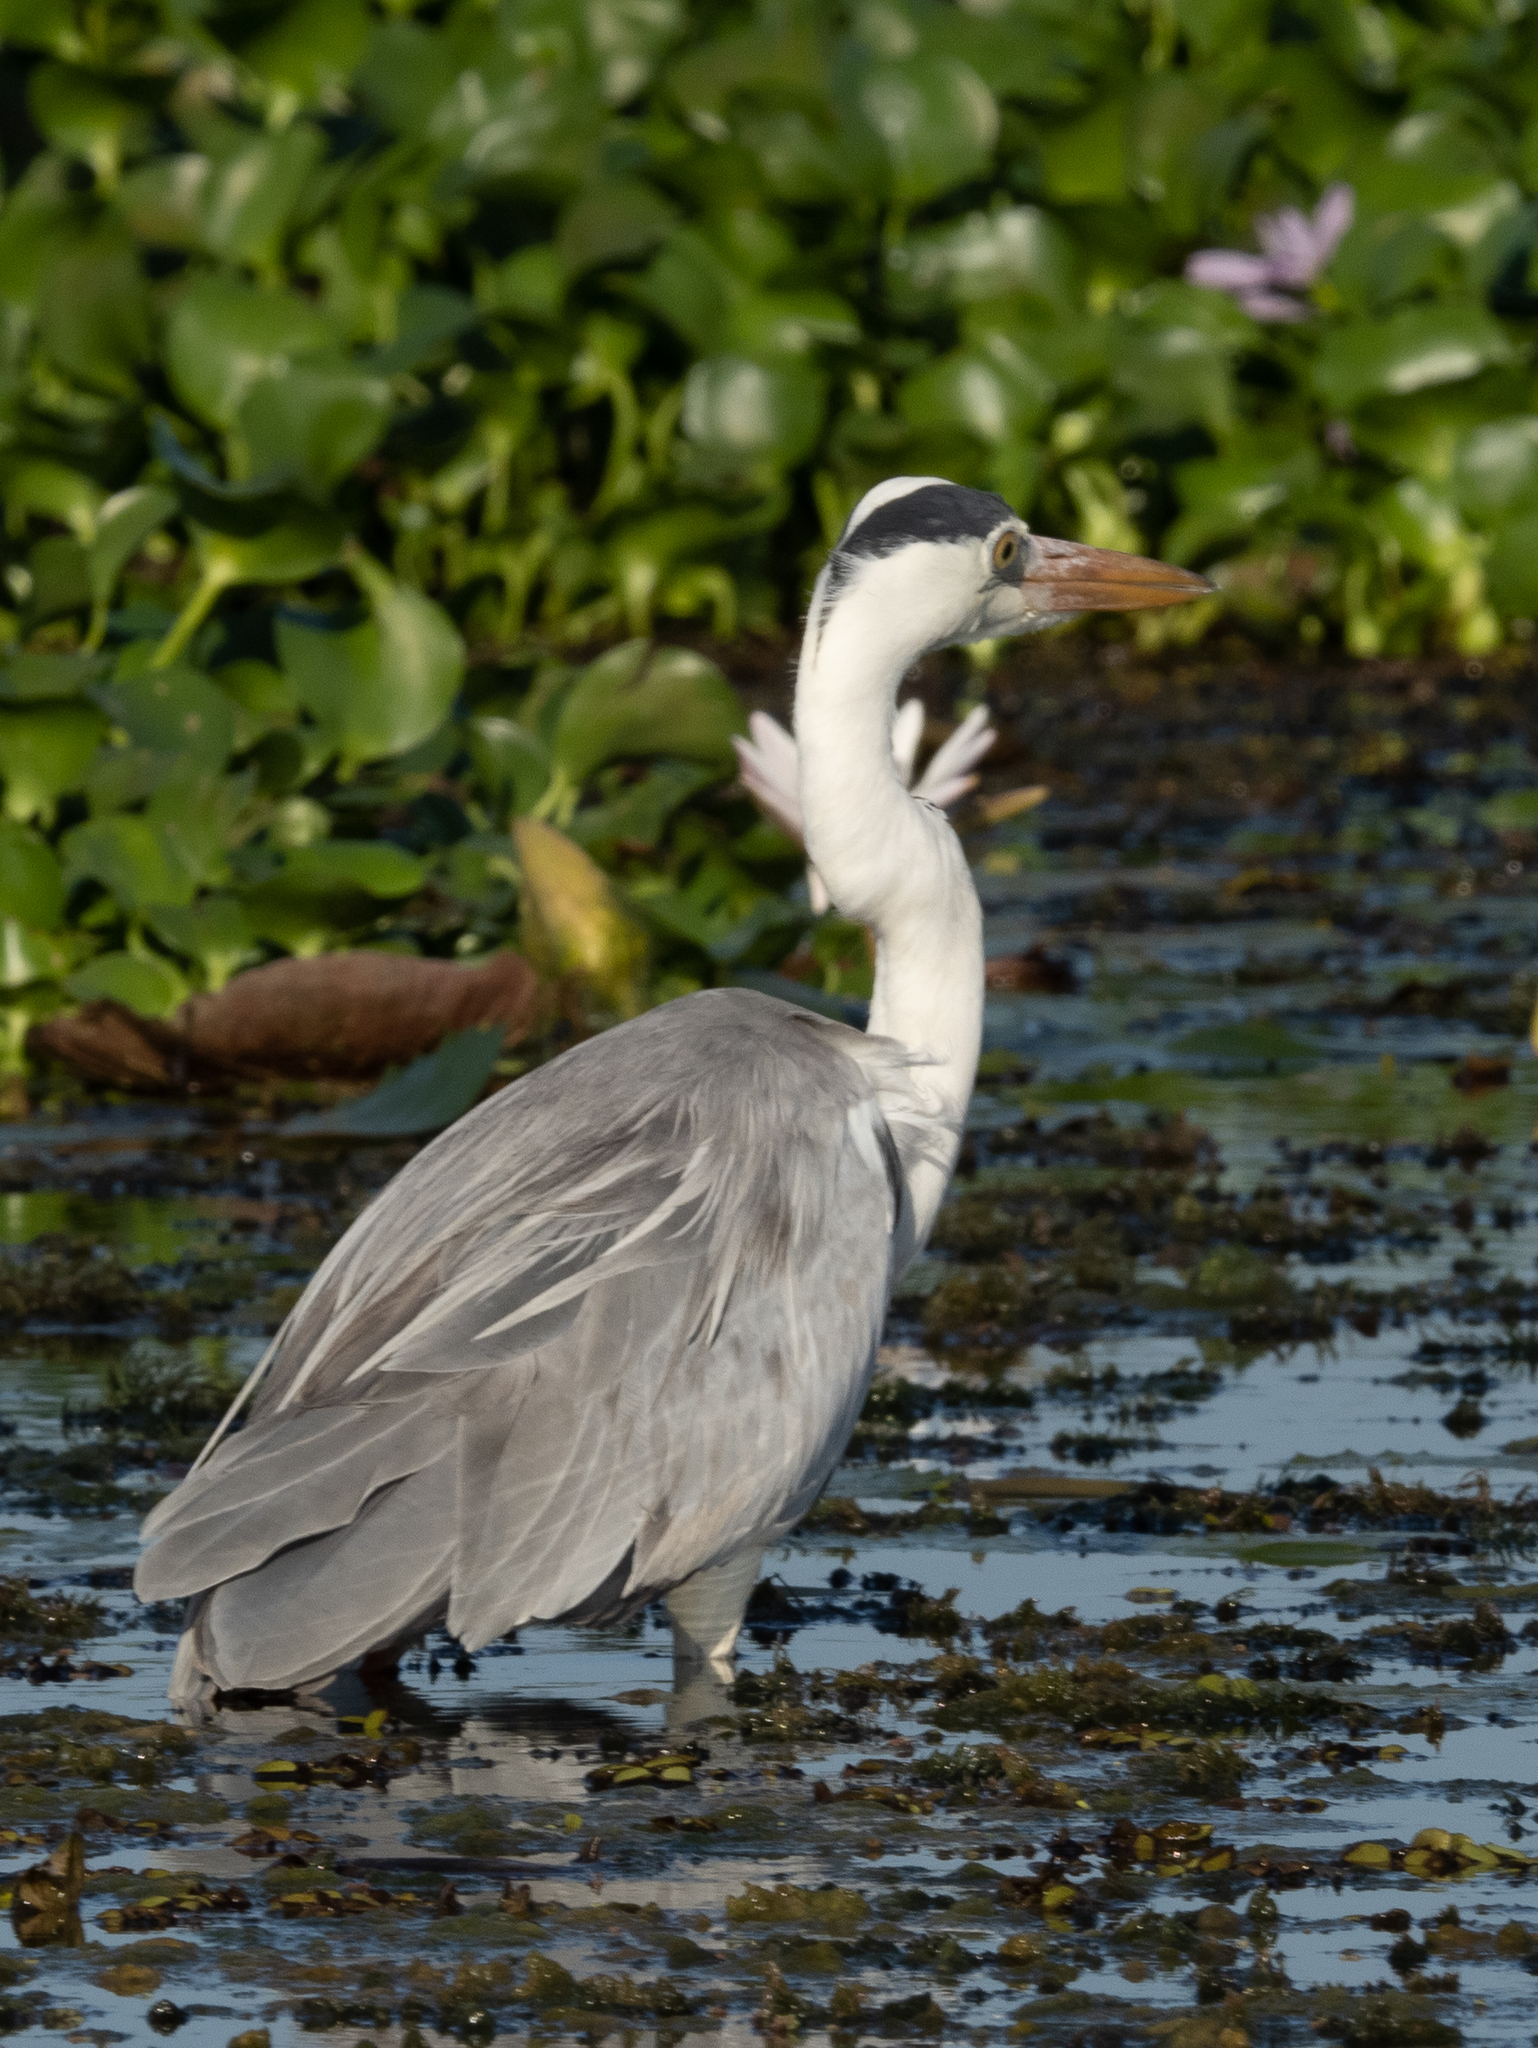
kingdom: Animalia
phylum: Chordata
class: Aves
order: Pelecaniformes
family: Ardeidae
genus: Ardea
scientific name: Ardea cinerea
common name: Grey heron
